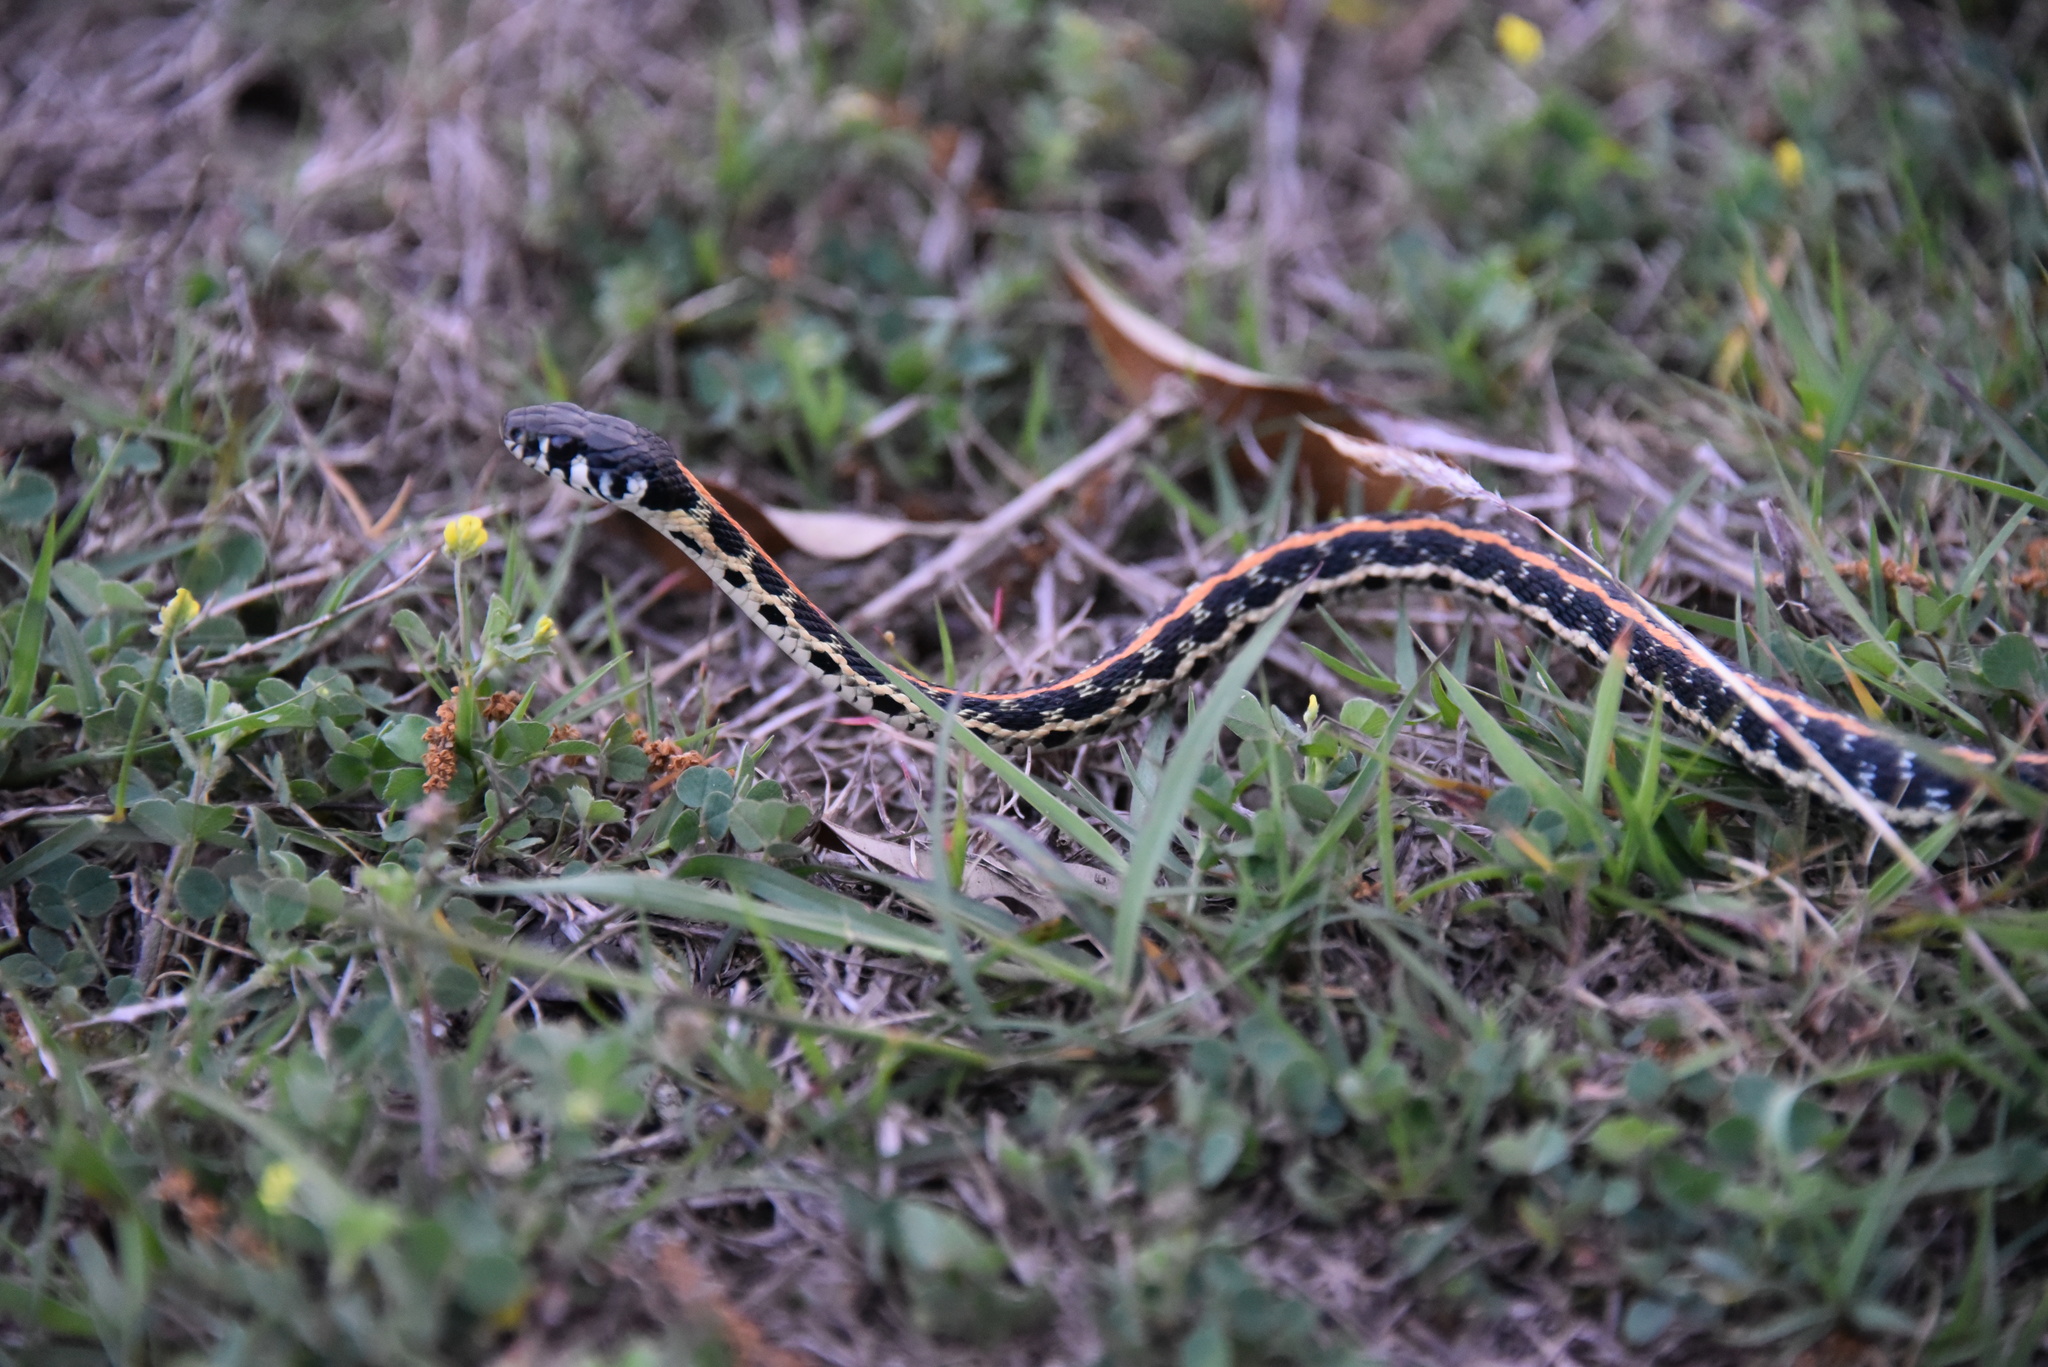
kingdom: Animalia
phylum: Chordata
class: Squamata
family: Colubridae
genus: Thamnophis
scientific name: Thamnophis cyrtopsis
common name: Black-necked gartersnake
